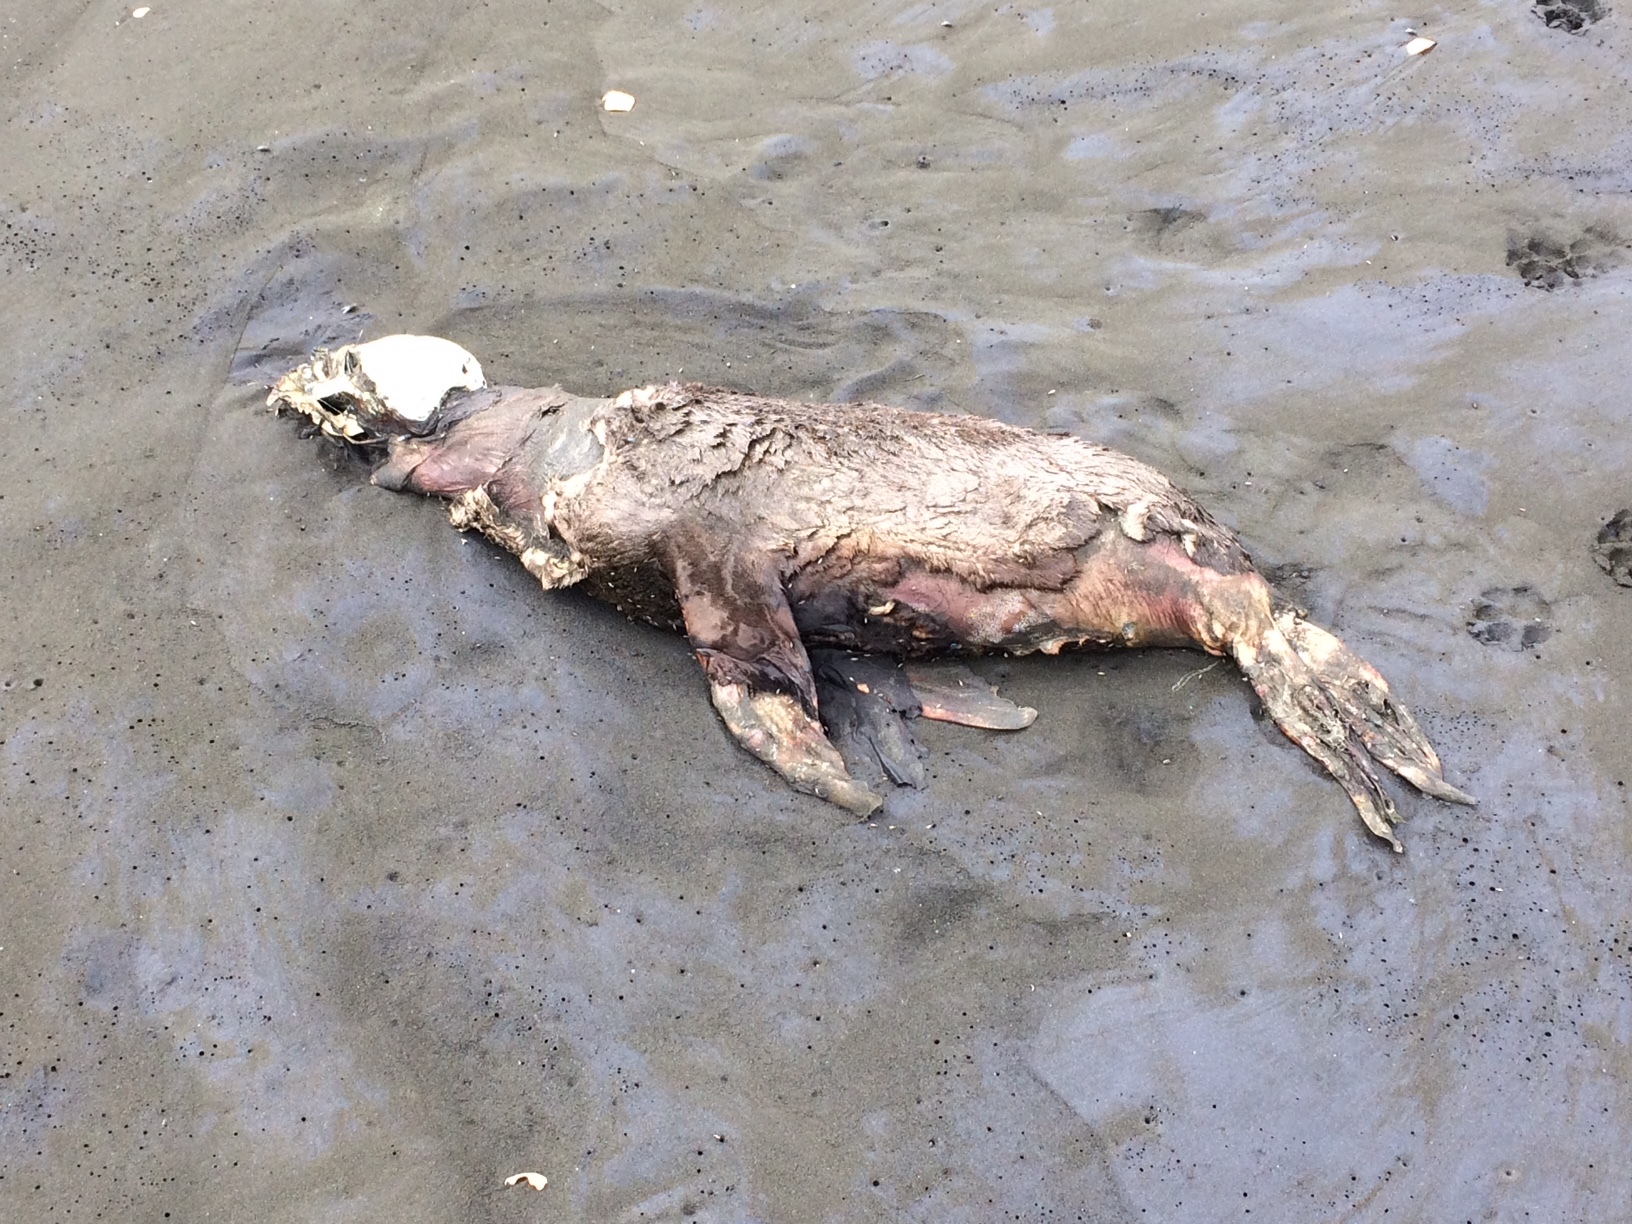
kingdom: Animalia
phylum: Chordata
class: Mammalia
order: Carnivora
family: Otariidae
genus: Arctocephalus
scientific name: Arctocephalus forsteri
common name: New zealand fur seal
